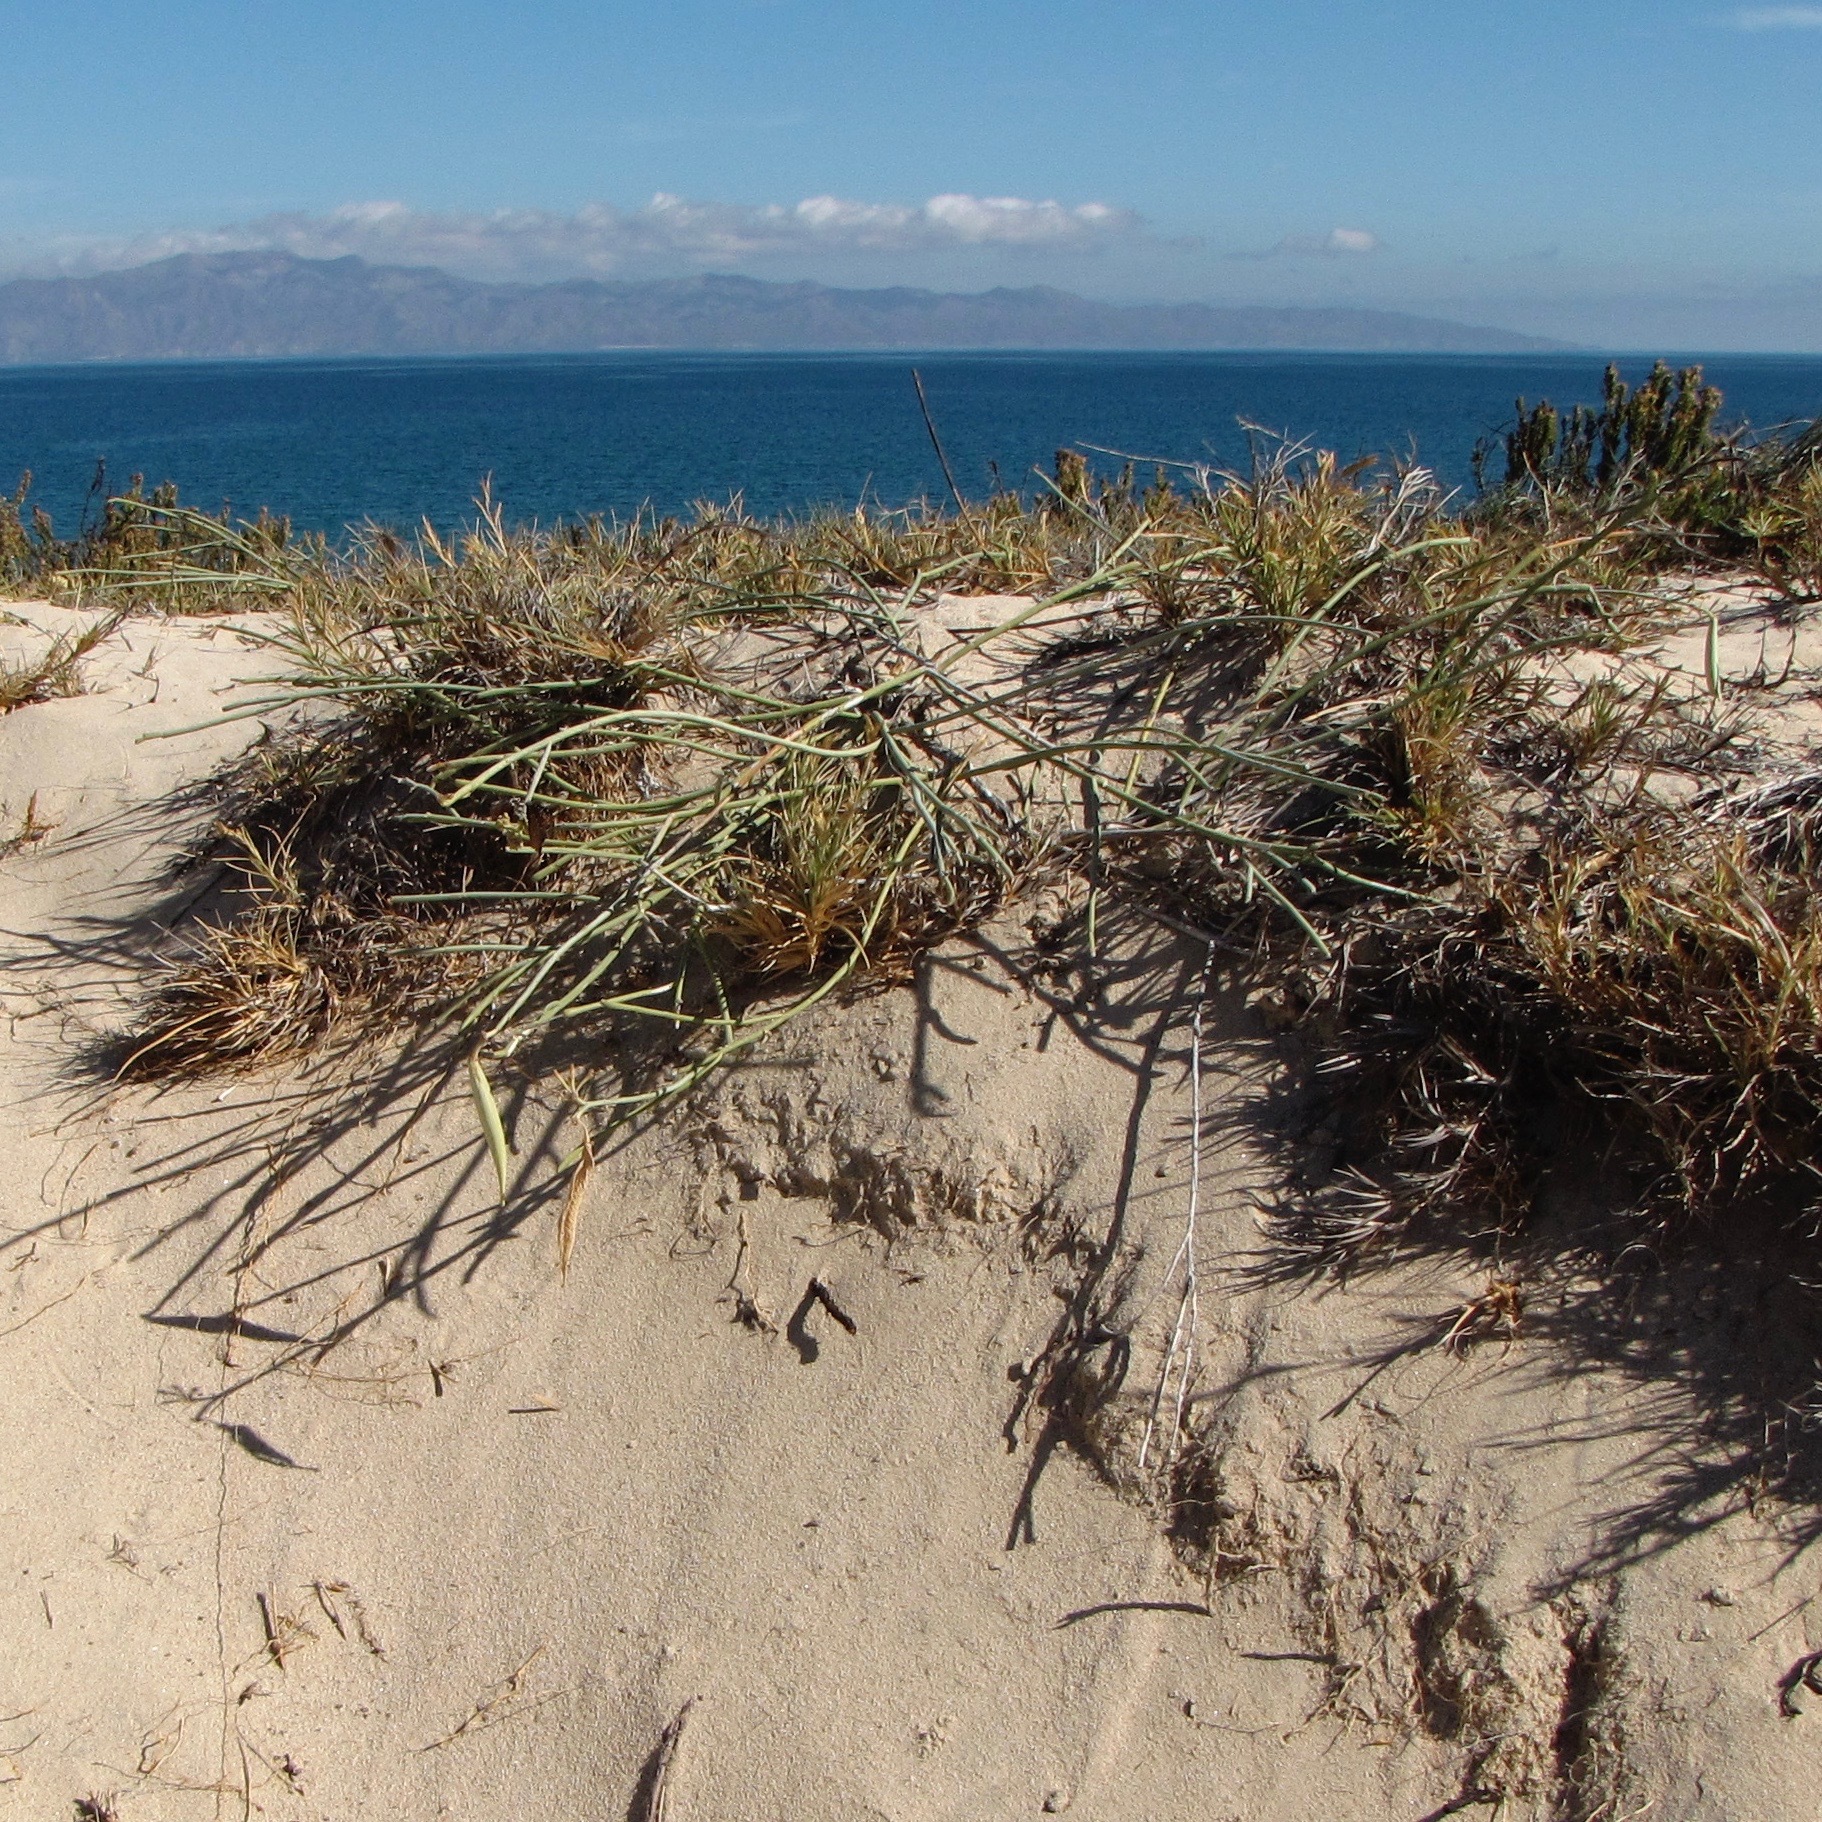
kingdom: Plantae
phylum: Tracheophyta
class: Magnoliopsida
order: Gentianales
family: Apocynaceae
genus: Asclepias
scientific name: Asclepias subulata
